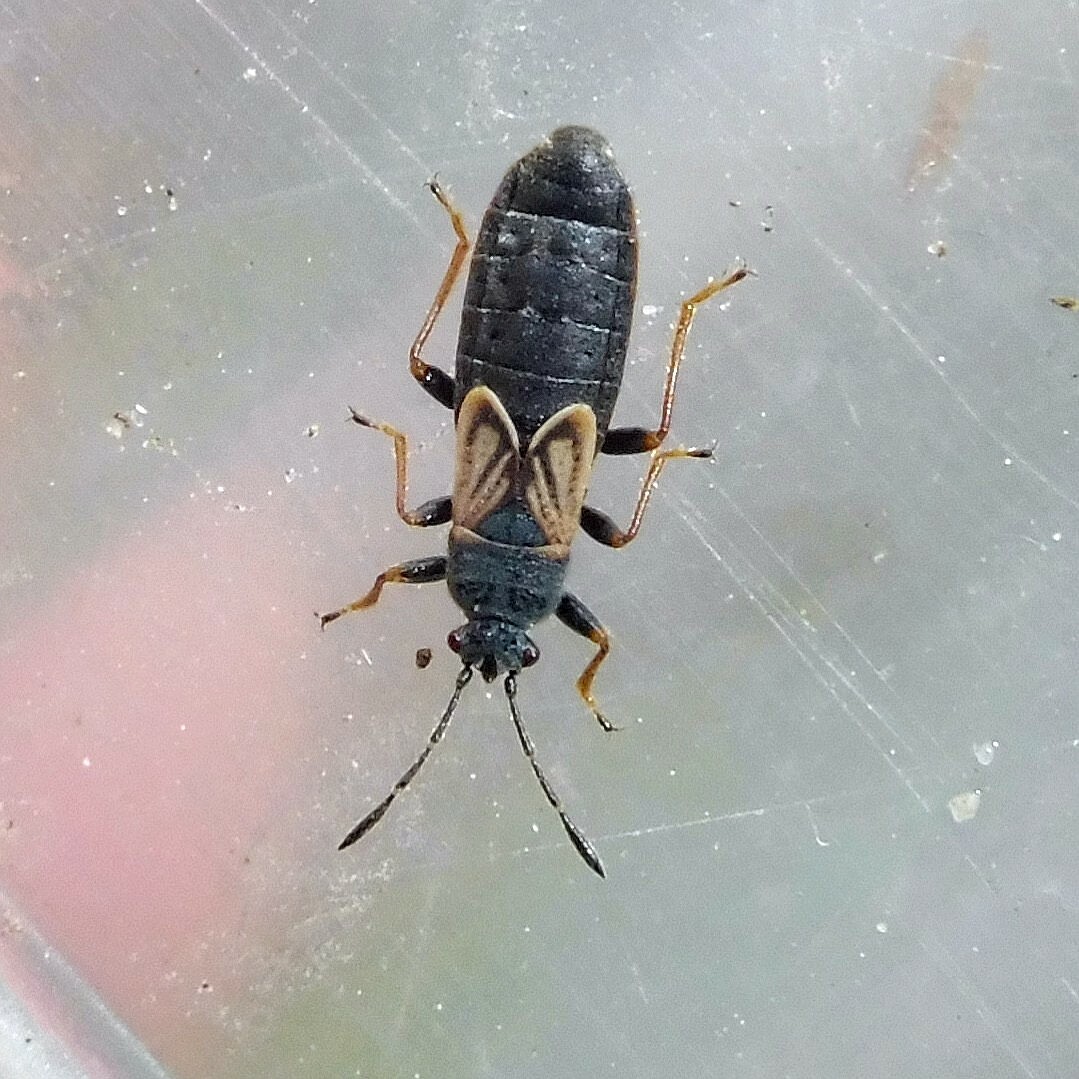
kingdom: Animalia
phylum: Arthropoda
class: Insecta
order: Hemiptera
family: Blissidae
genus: Ischnodemus
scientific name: Ischnodemus sabuleti
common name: European cinchbug
